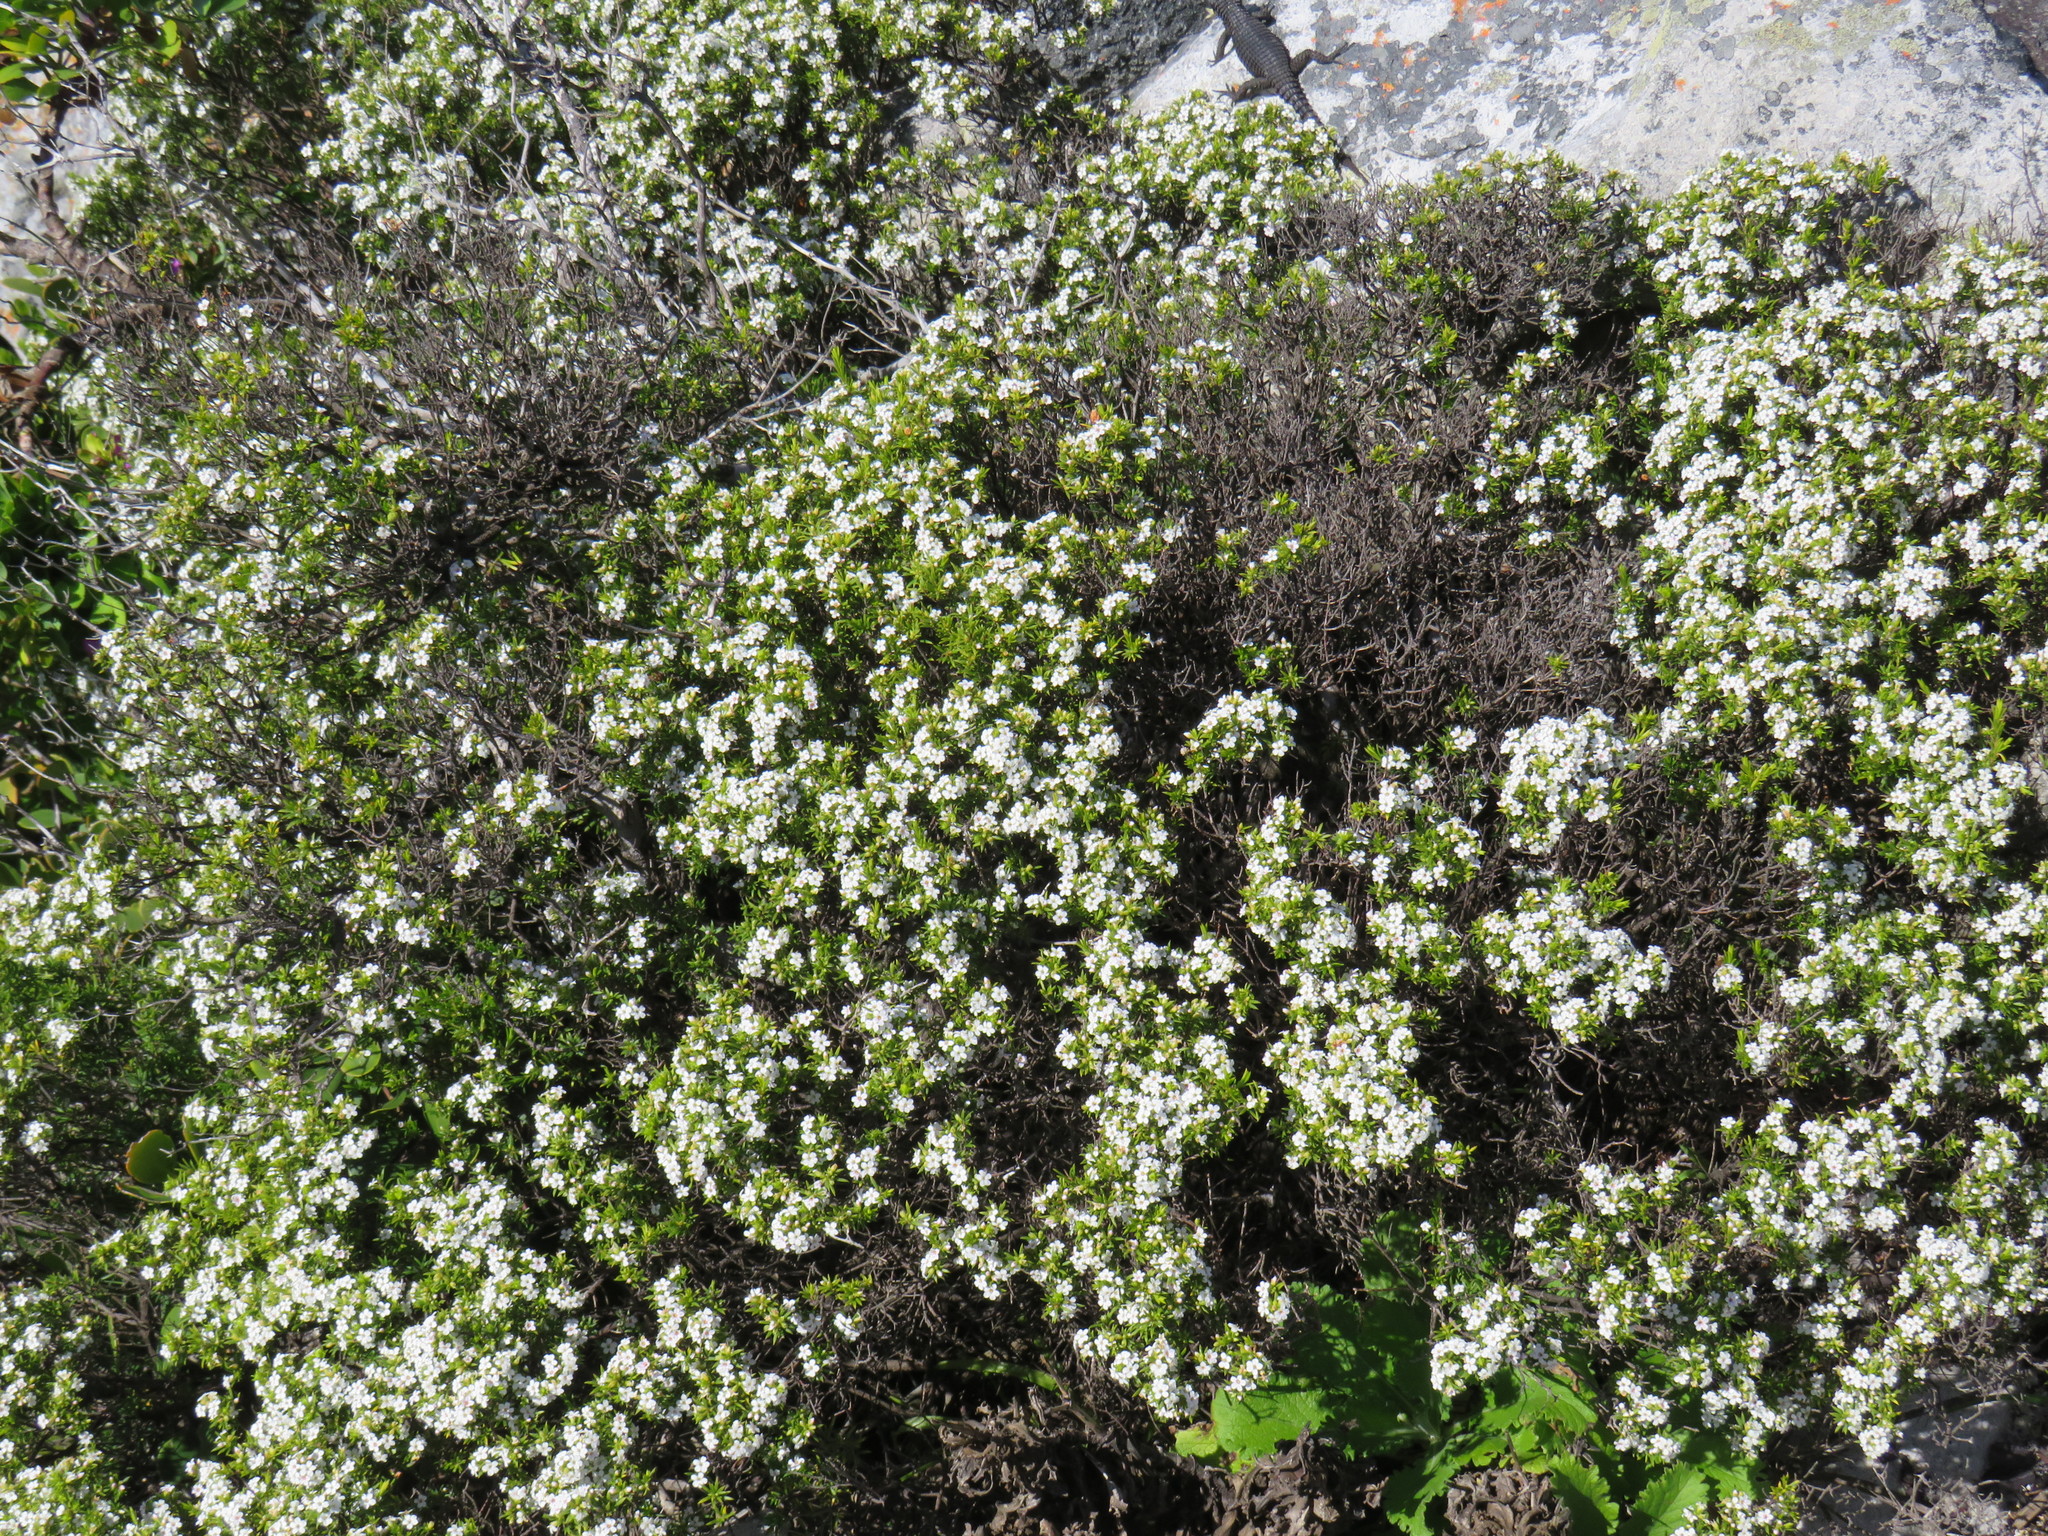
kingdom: Plantae
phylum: Tracheophyta
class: Magnoliopsida
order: Sapindales
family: Rutaceae
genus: Coleonema
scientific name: Coleonema album
